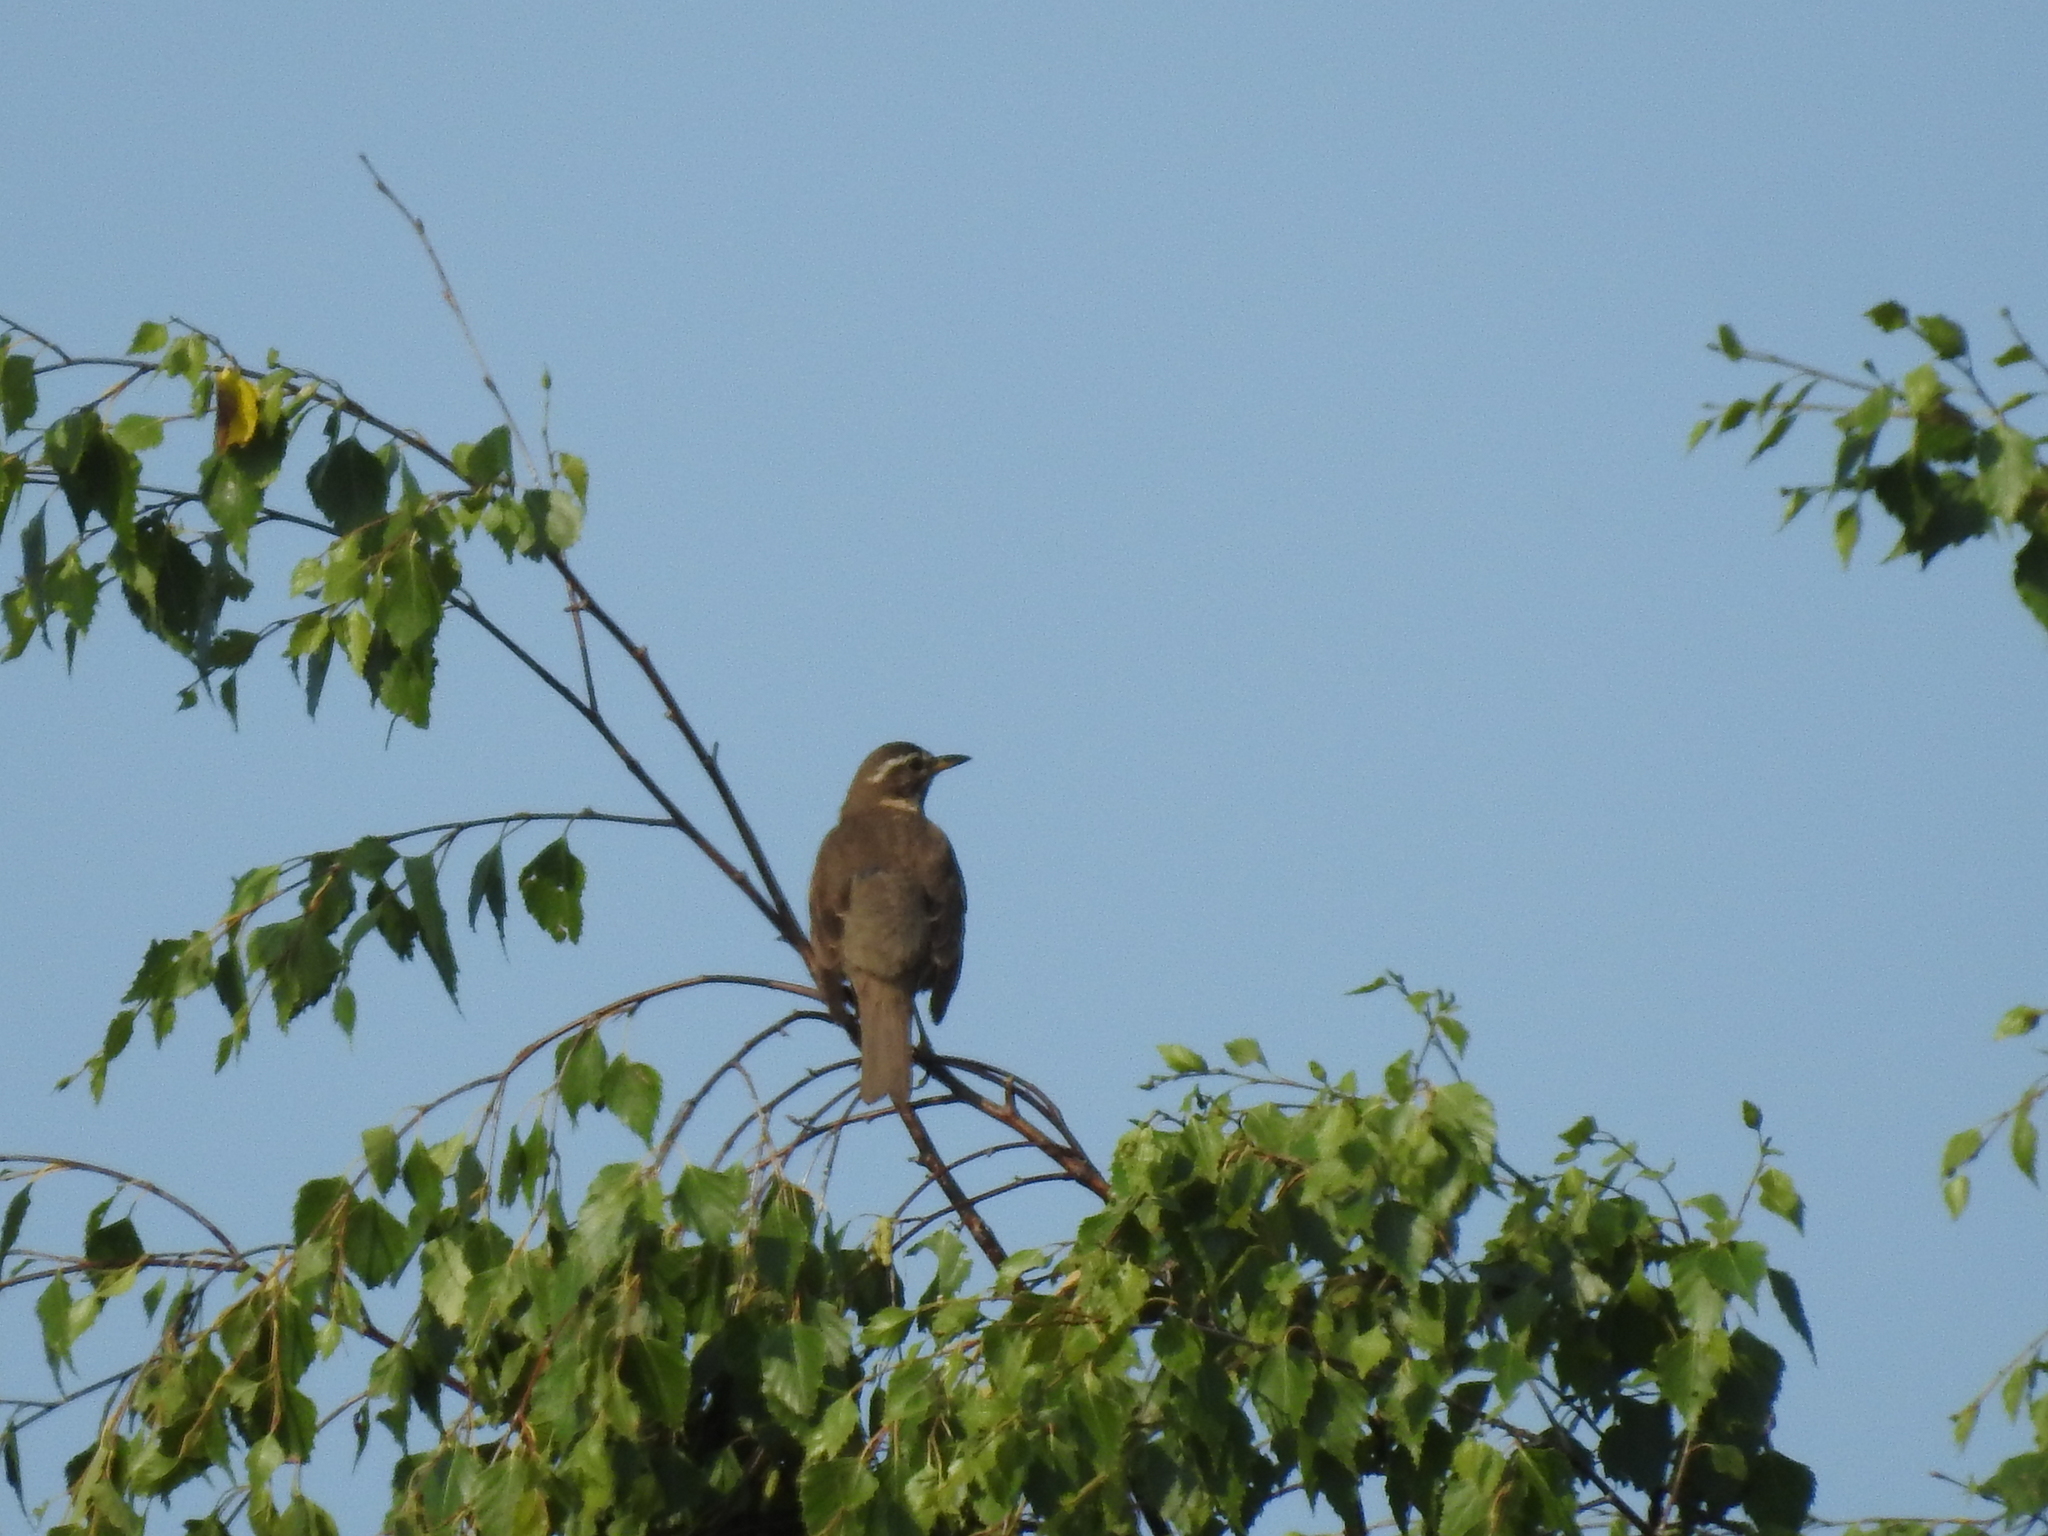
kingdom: Animalia
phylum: Chordata
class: Aves
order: Passeriformes
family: Turdidae
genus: Turdus
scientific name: Turdus iliacus
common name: Redwing
